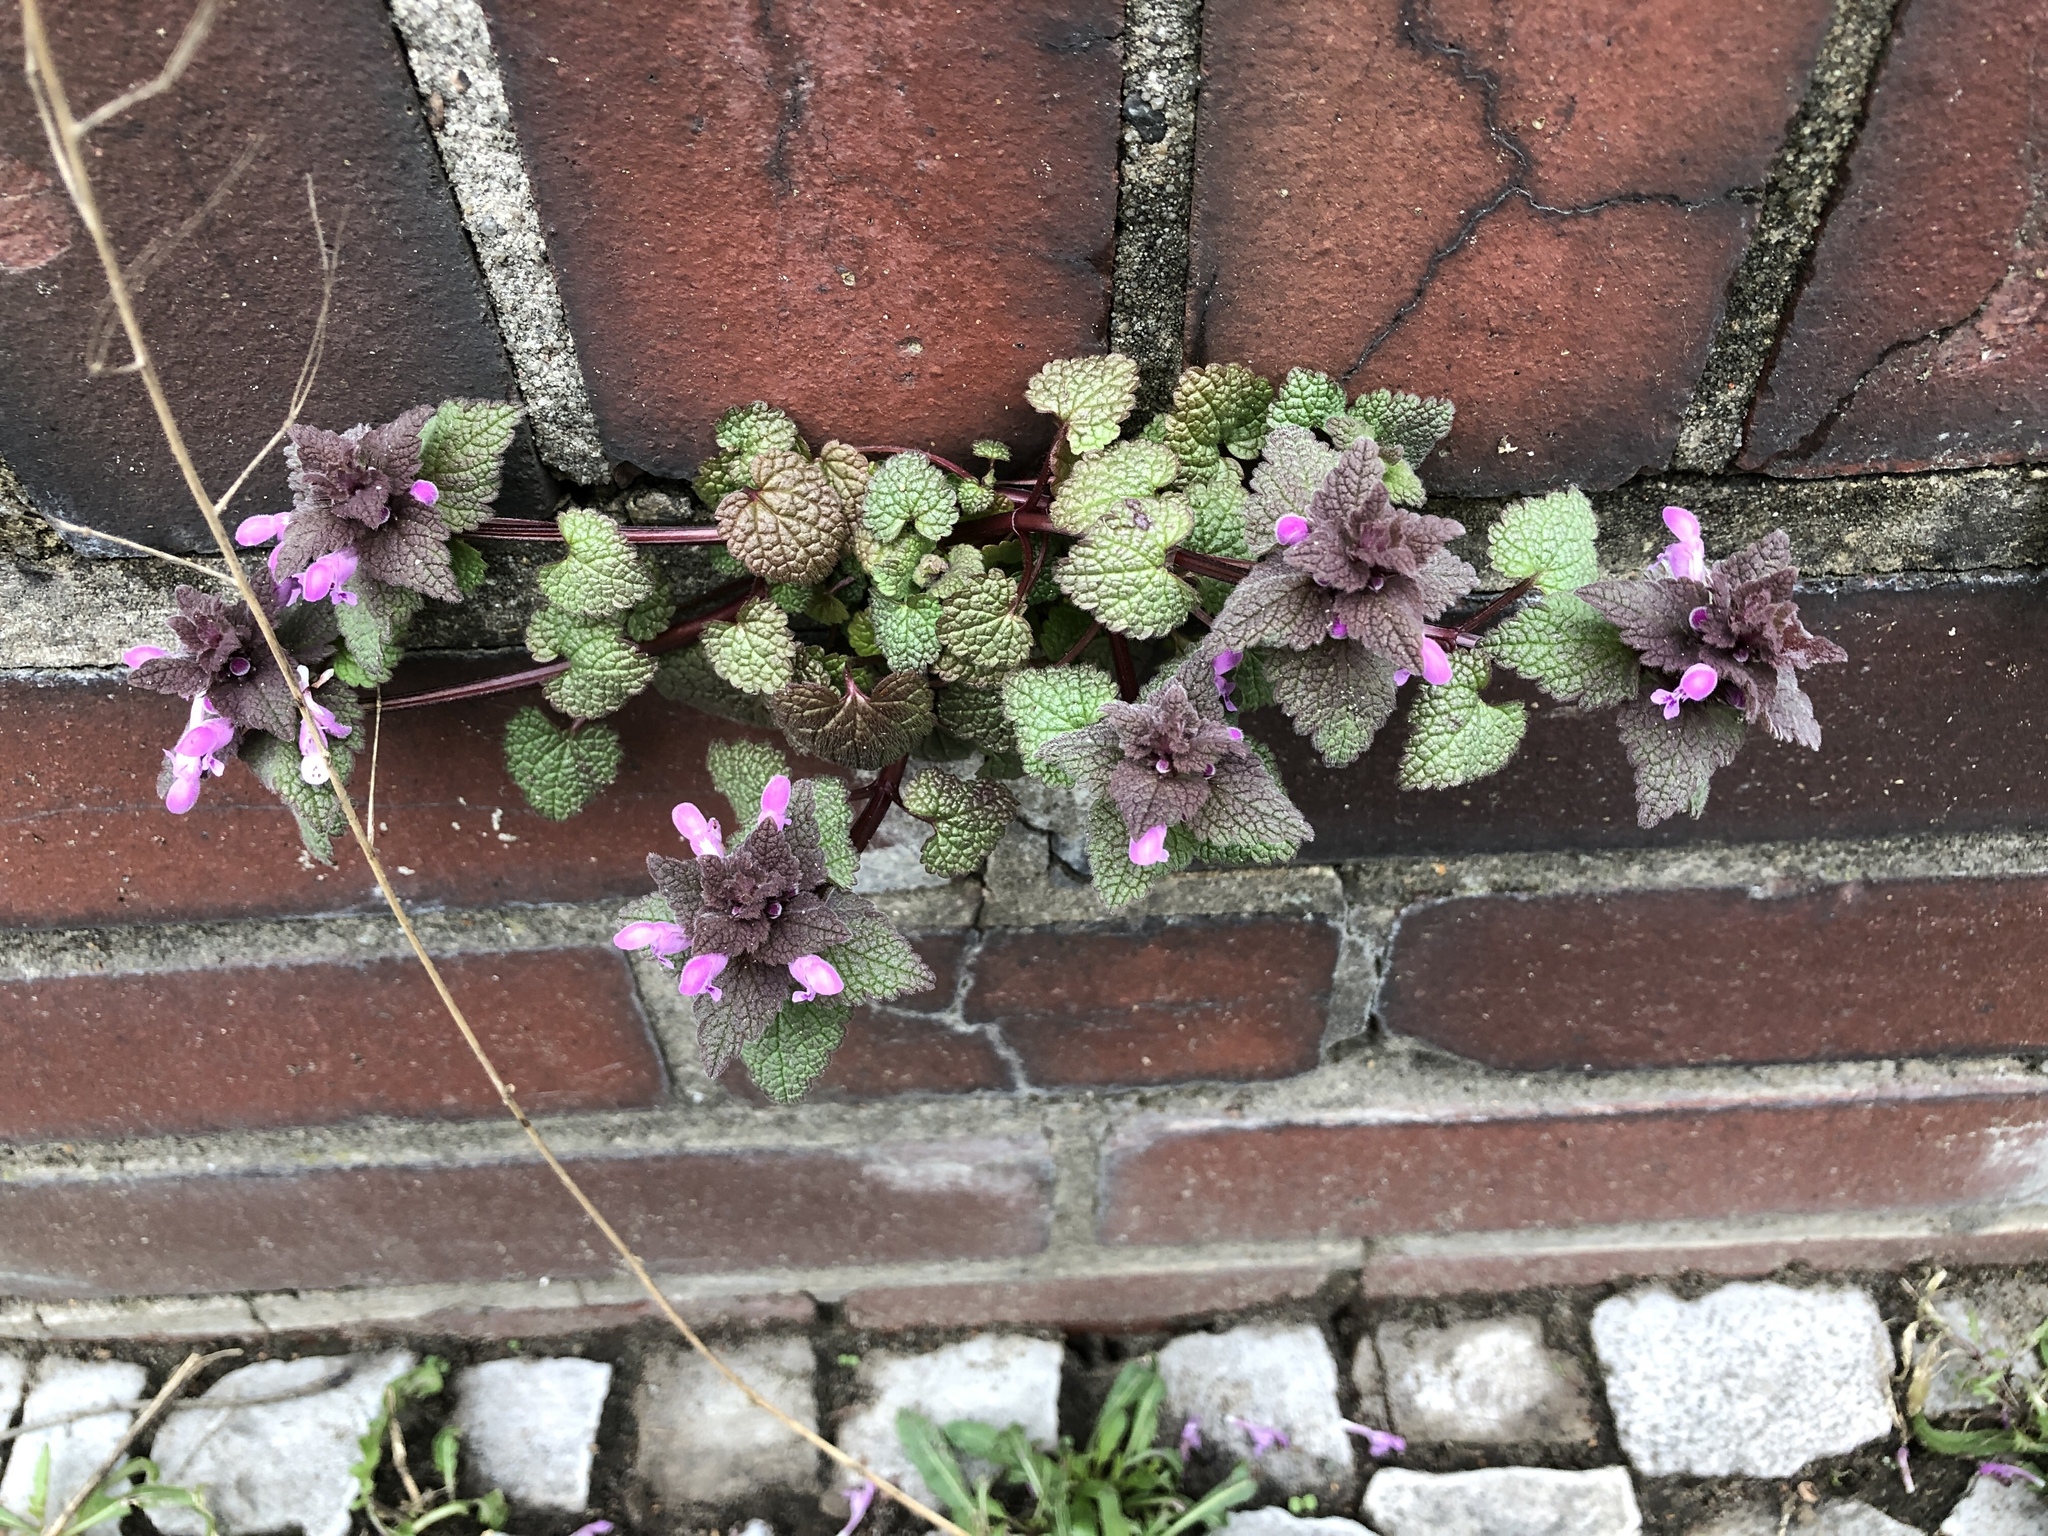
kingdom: Plantae
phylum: Tracheophyta
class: Magnoliopsida
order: Lamiales
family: Lamiaceae
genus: Lamium
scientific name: Lamium purpureum
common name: Red dead-nettle
